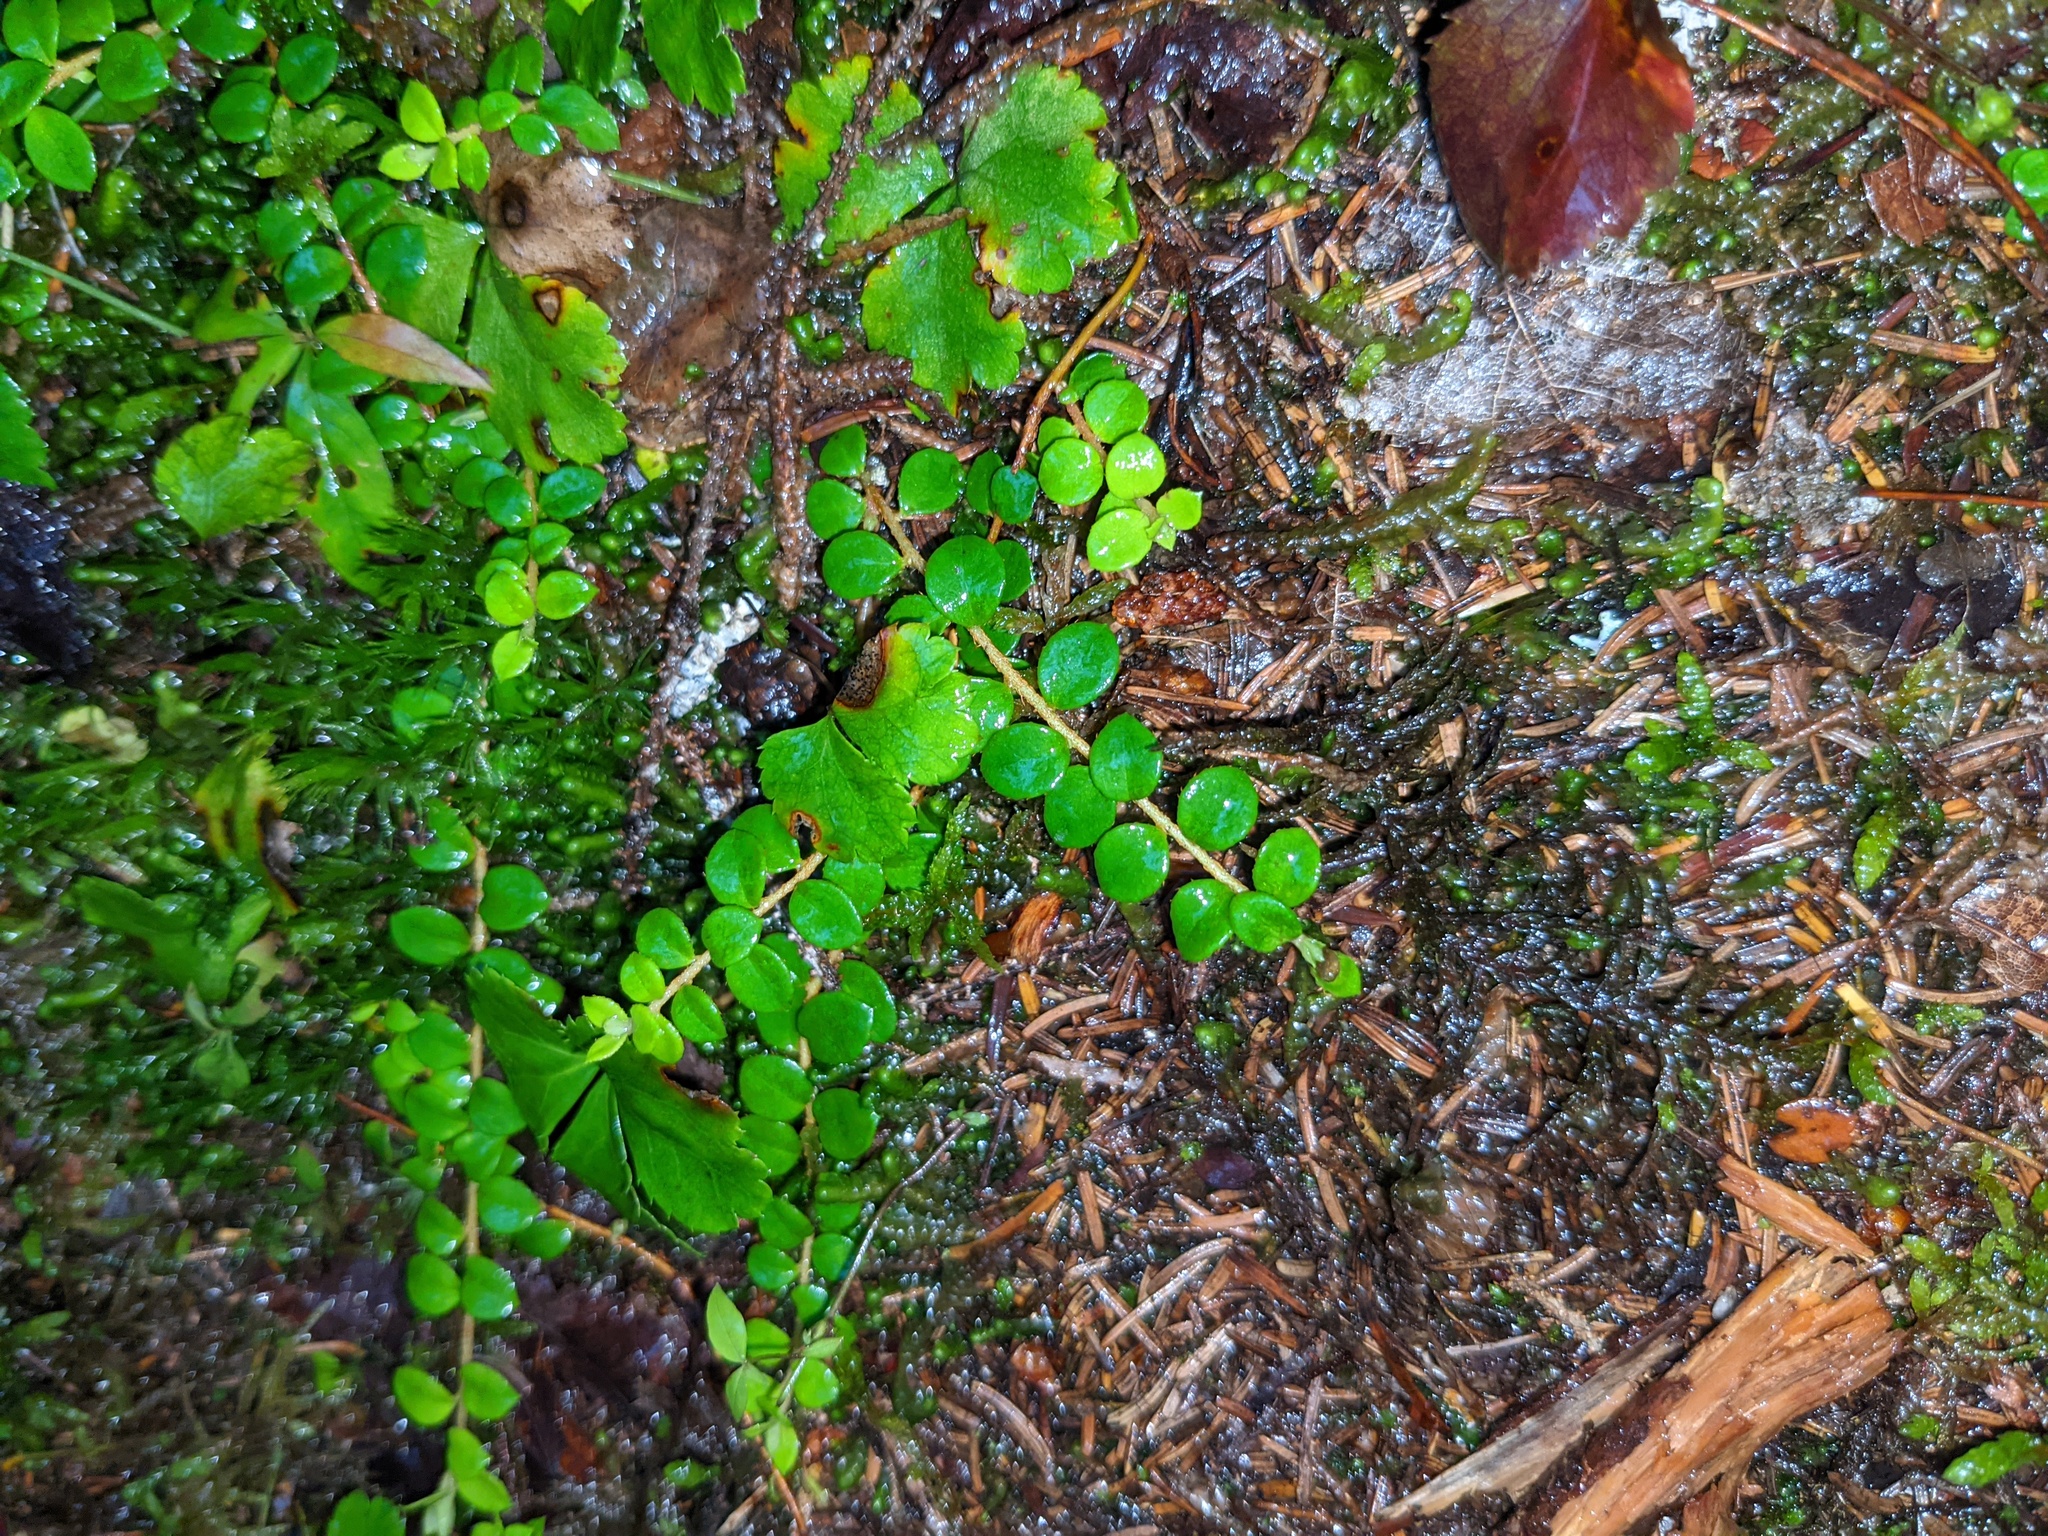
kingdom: Plantae
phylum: Tracheophyta
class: Magnoliopsida
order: Ericales
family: Ericaceae
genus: Gaultheria
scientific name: Gaultheria hispidula
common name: Cancer wintergreen
